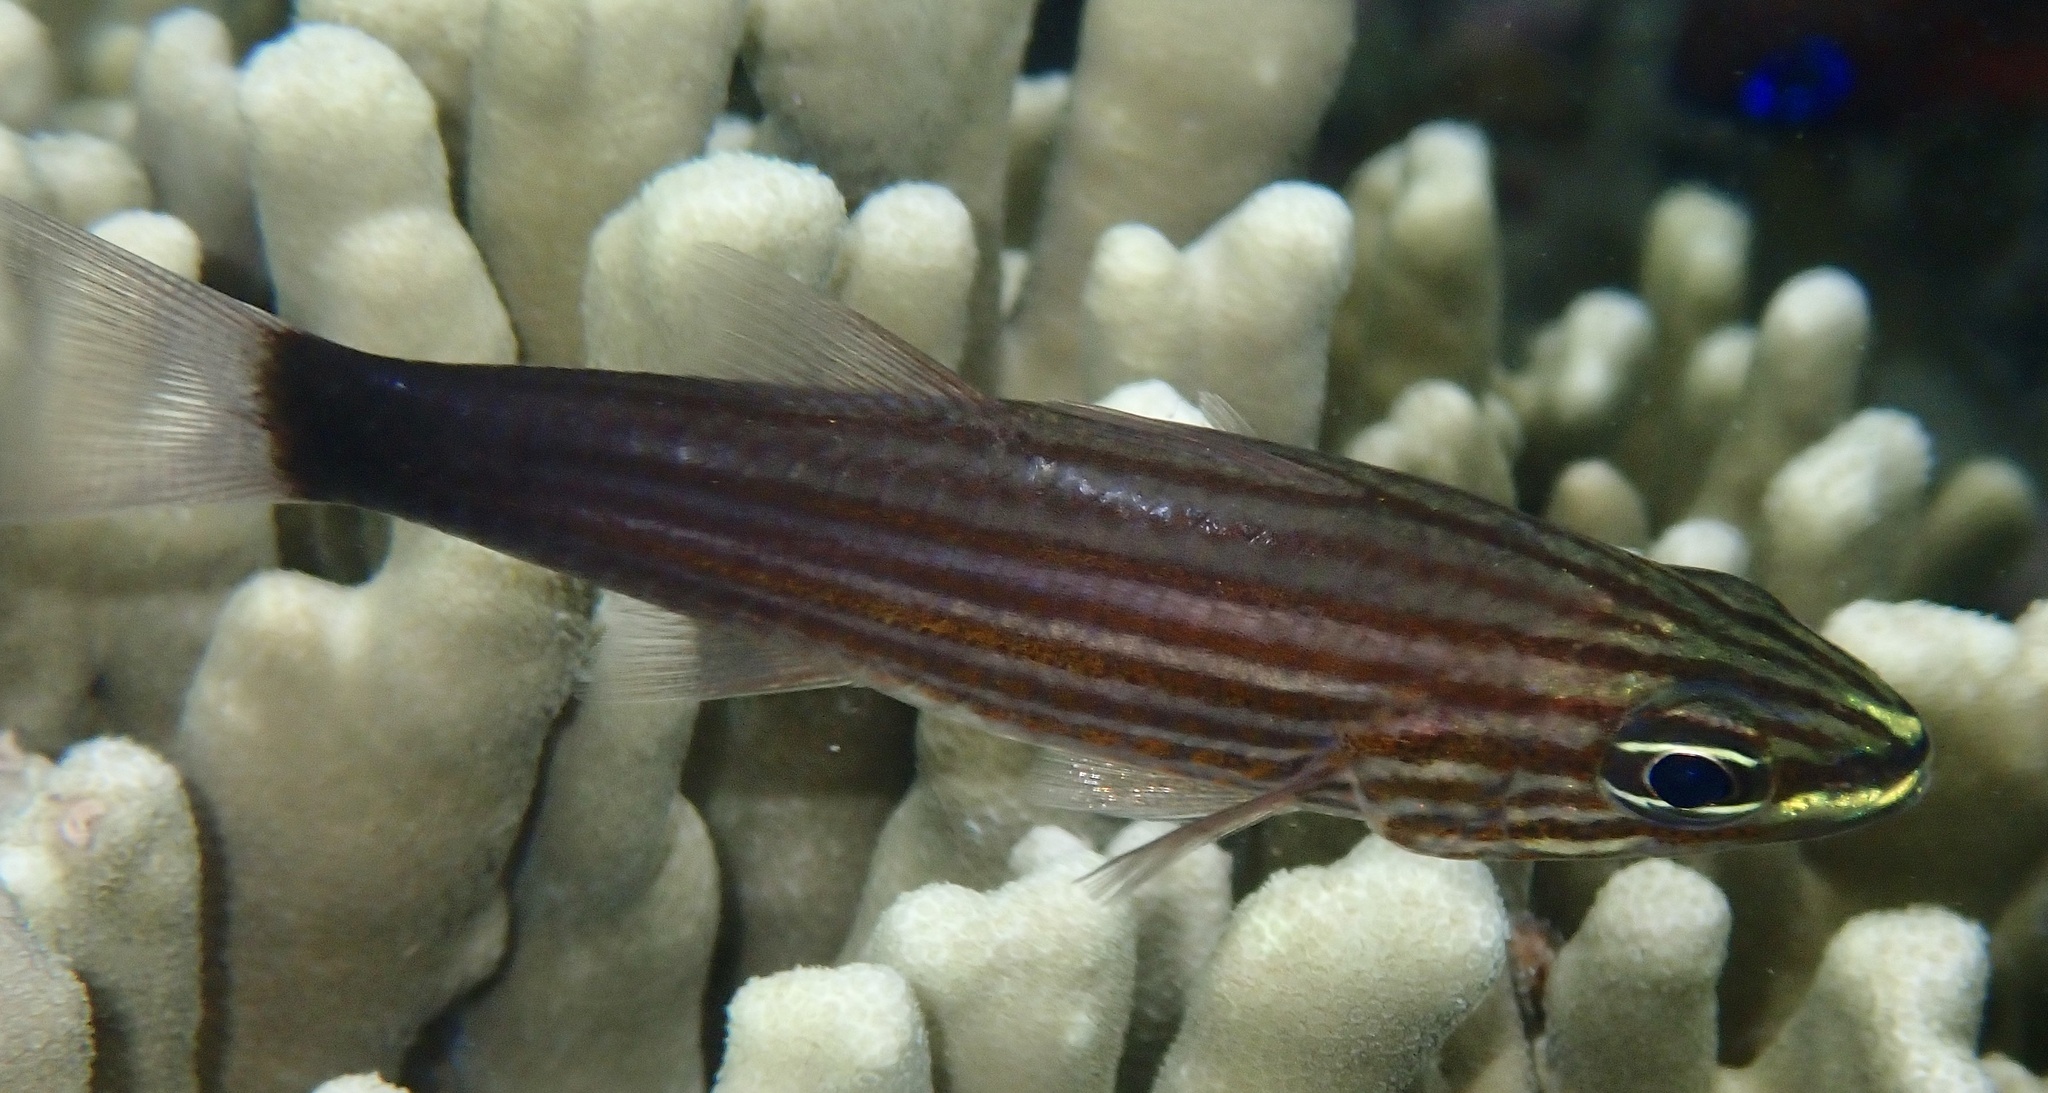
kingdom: Animalia
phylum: Chordata
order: Perciformes
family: Apogonidae
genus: Cheilodipterus
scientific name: Cheilodipterus artus
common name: Wolf cardinal
